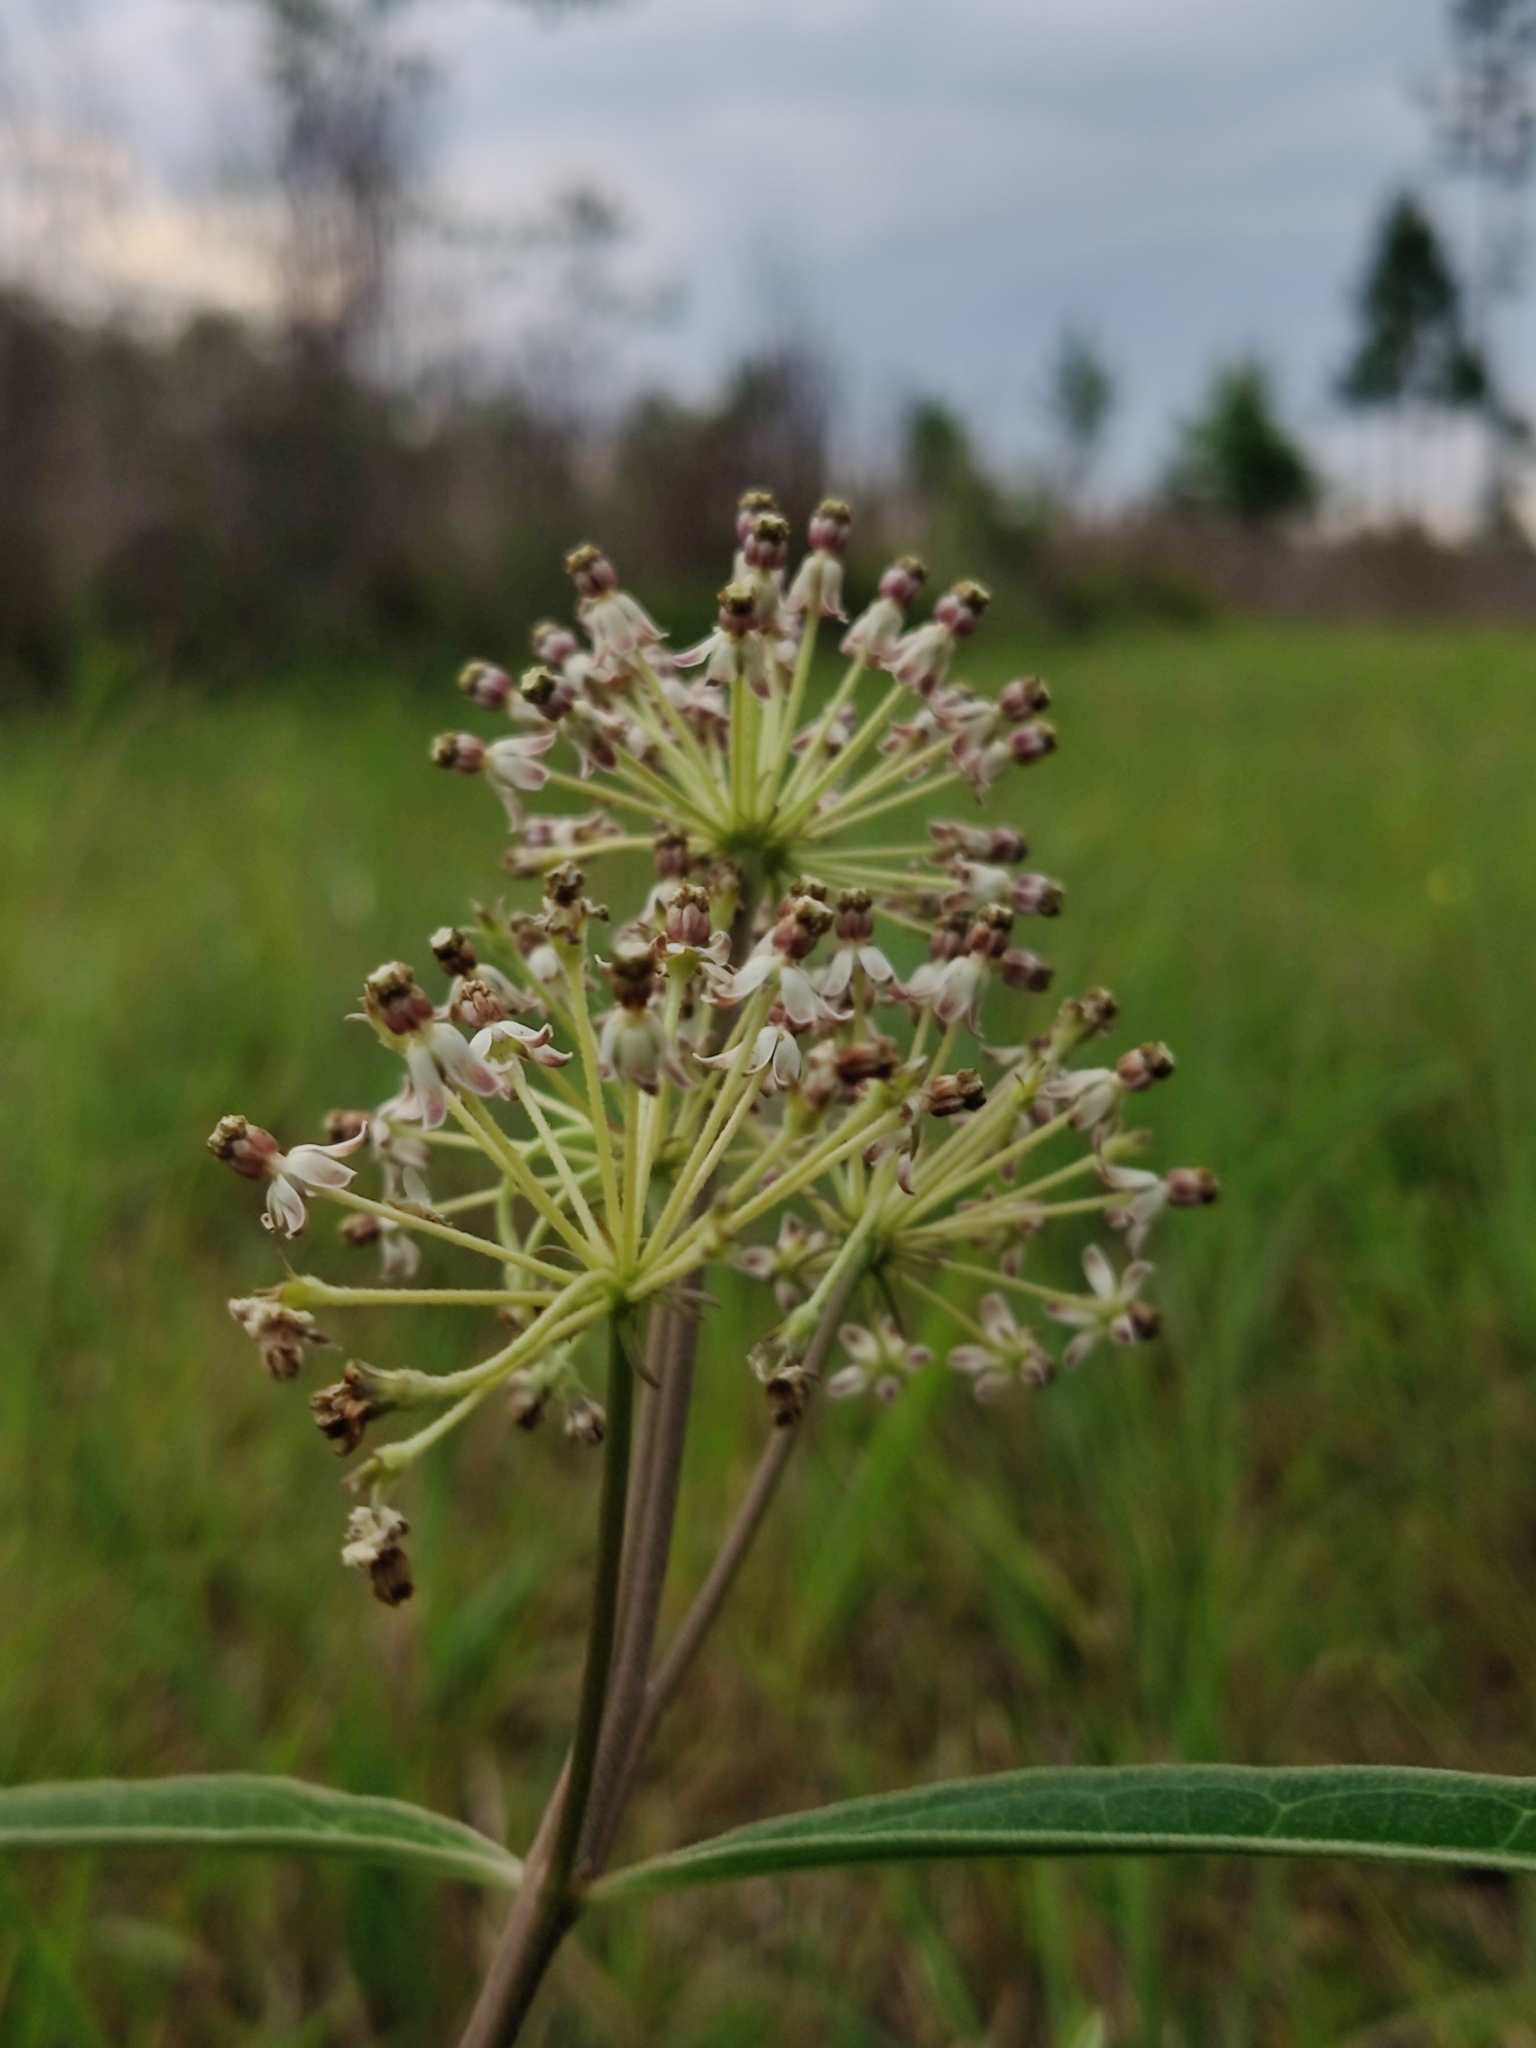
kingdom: Plantae
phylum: Tracheophyta
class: Magnoliopsida
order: Gentianales
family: Apocynaceae
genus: Asclepias
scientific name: Asclepias longifolia
